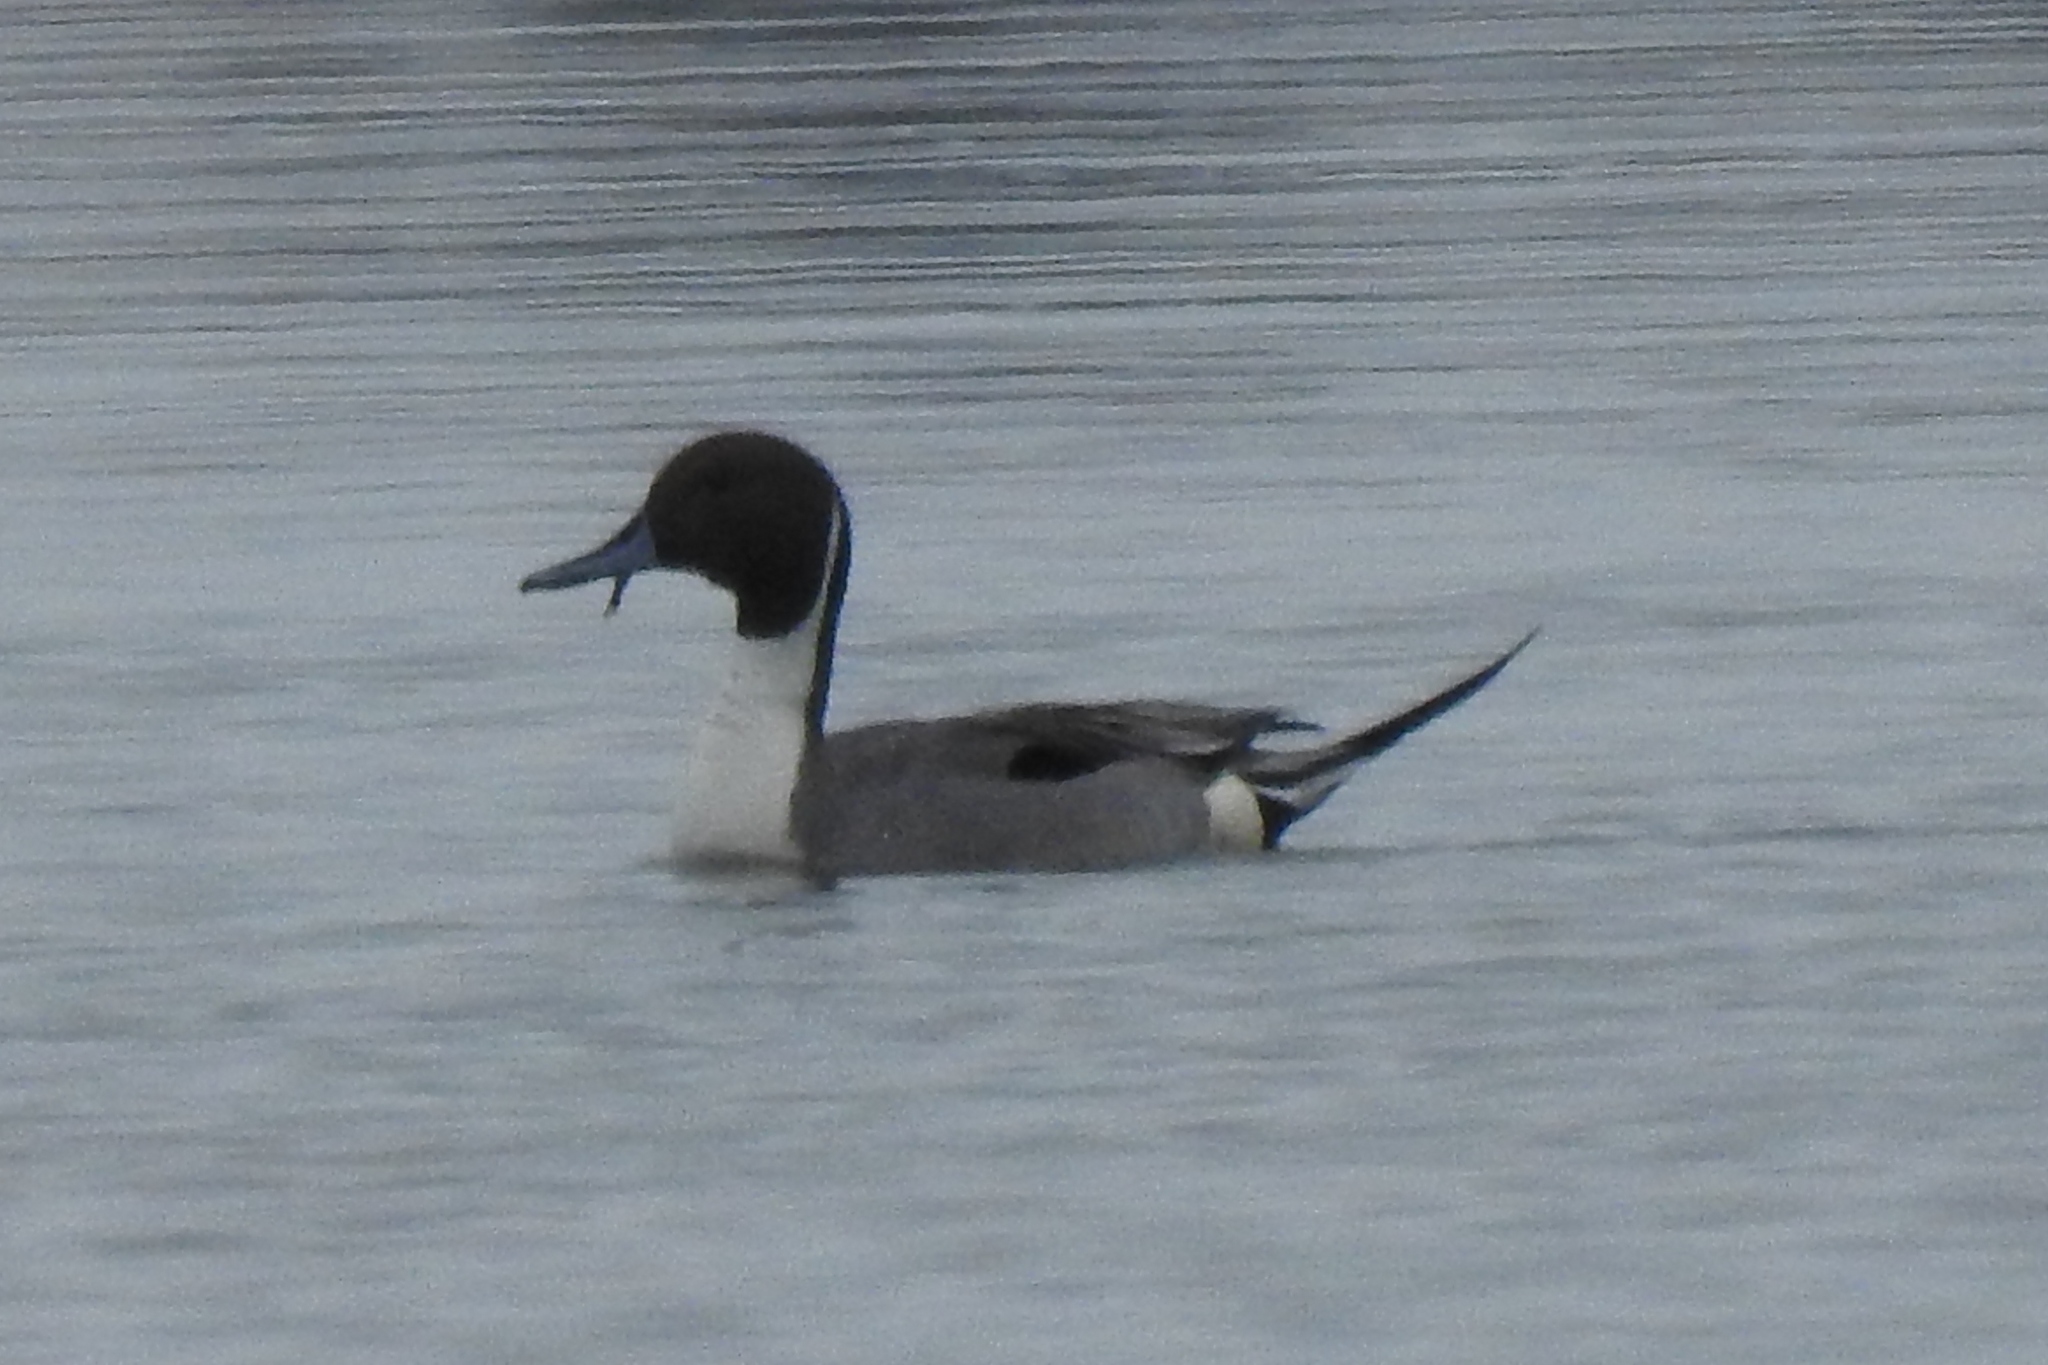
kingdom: Animalia
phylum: Chordata
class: Aves
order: Anseriformes
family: Anatidae
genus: Anas
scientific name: Anas acuta
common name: Northern pintail
